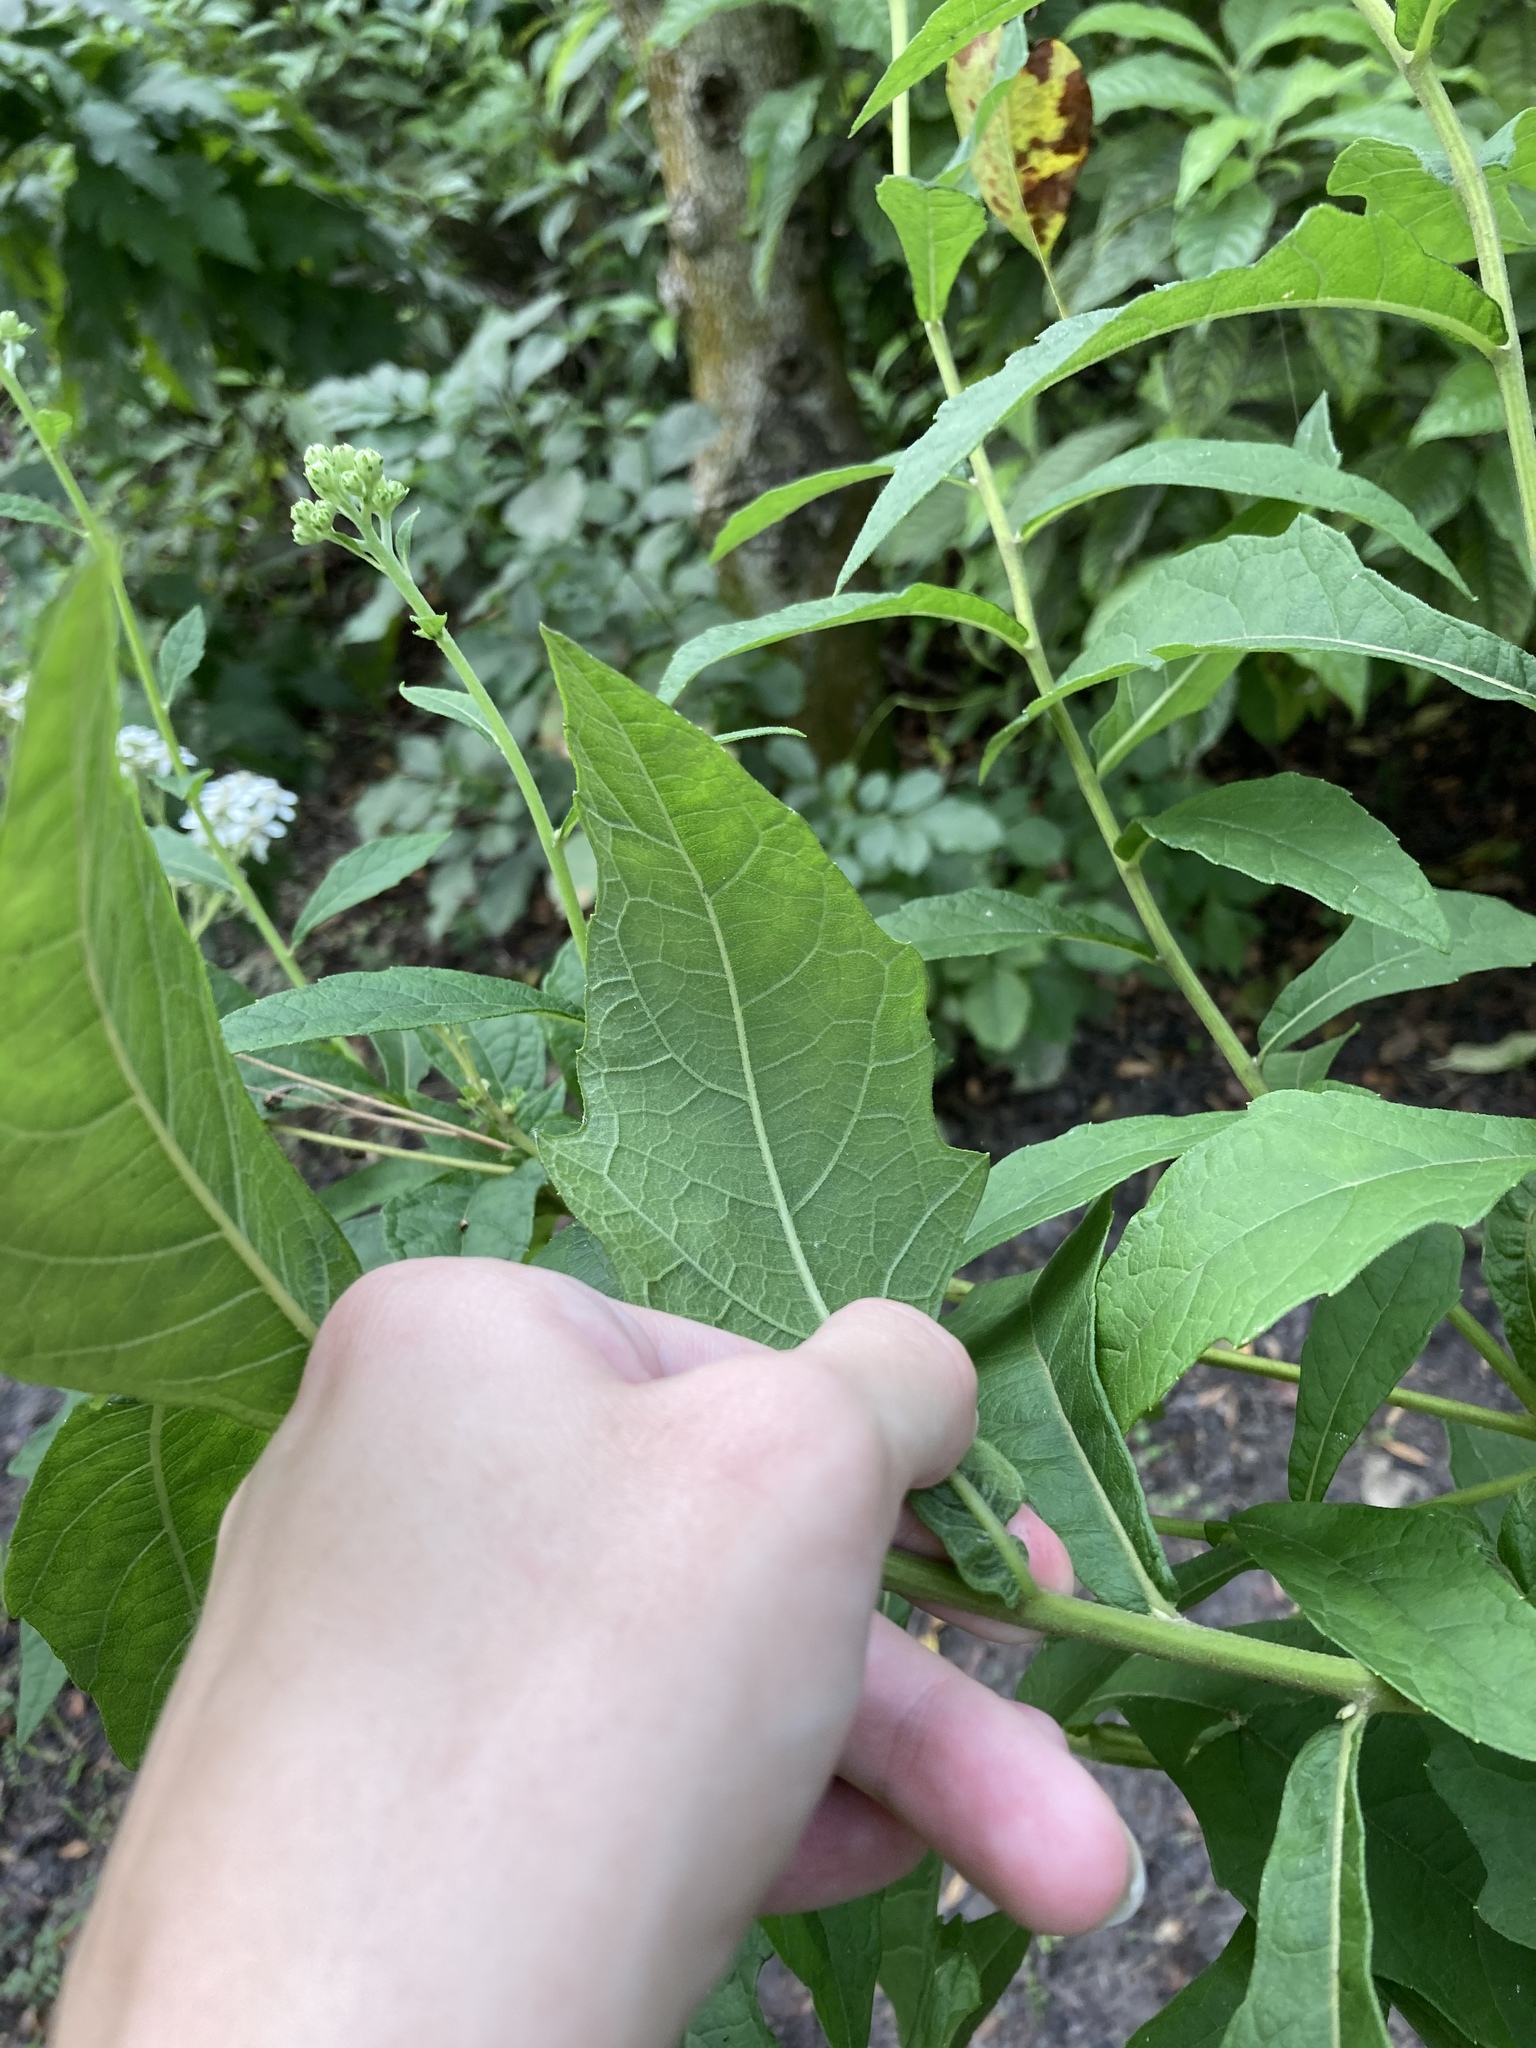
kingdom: Plantae
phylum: Tracheophyta
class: Magnoliopsida
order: Asterales
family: Asteraceae
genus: Verbesina
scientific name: Verbesina virginica
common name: Frostweed
